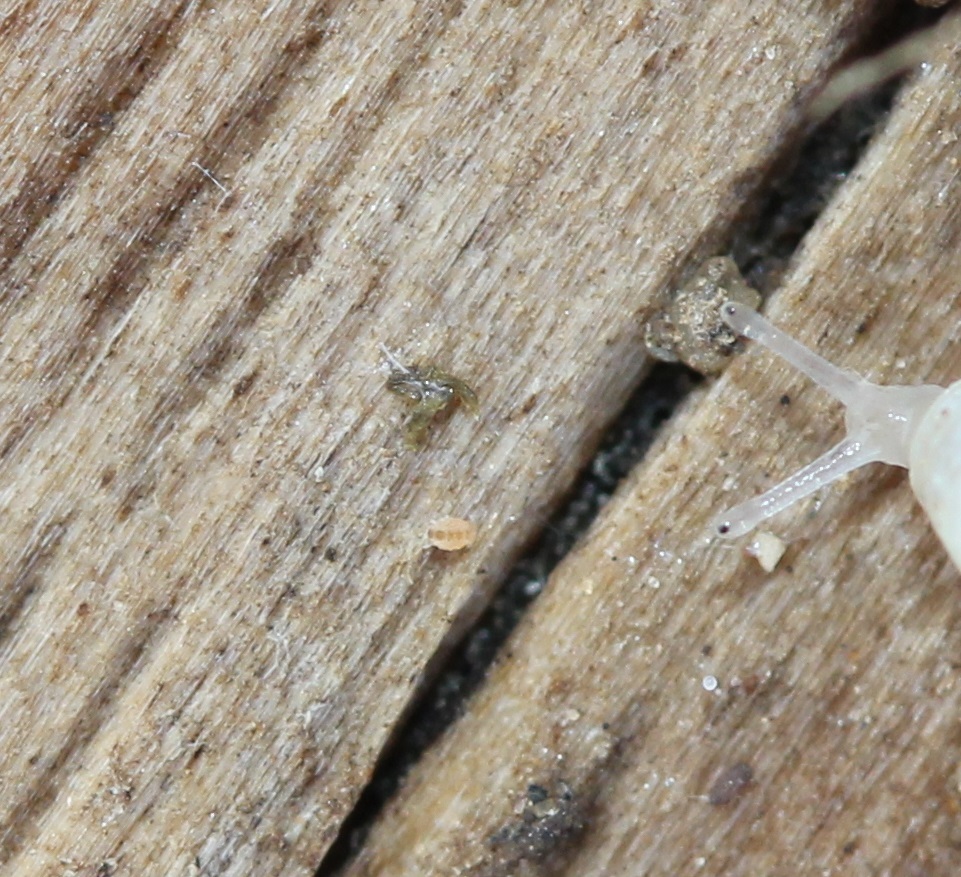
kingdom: Animalia
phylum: Arthropoda
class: Collembola
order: Neelipleona
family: Neelidae
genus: Megalothorax
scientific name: Megalothorax minimus
